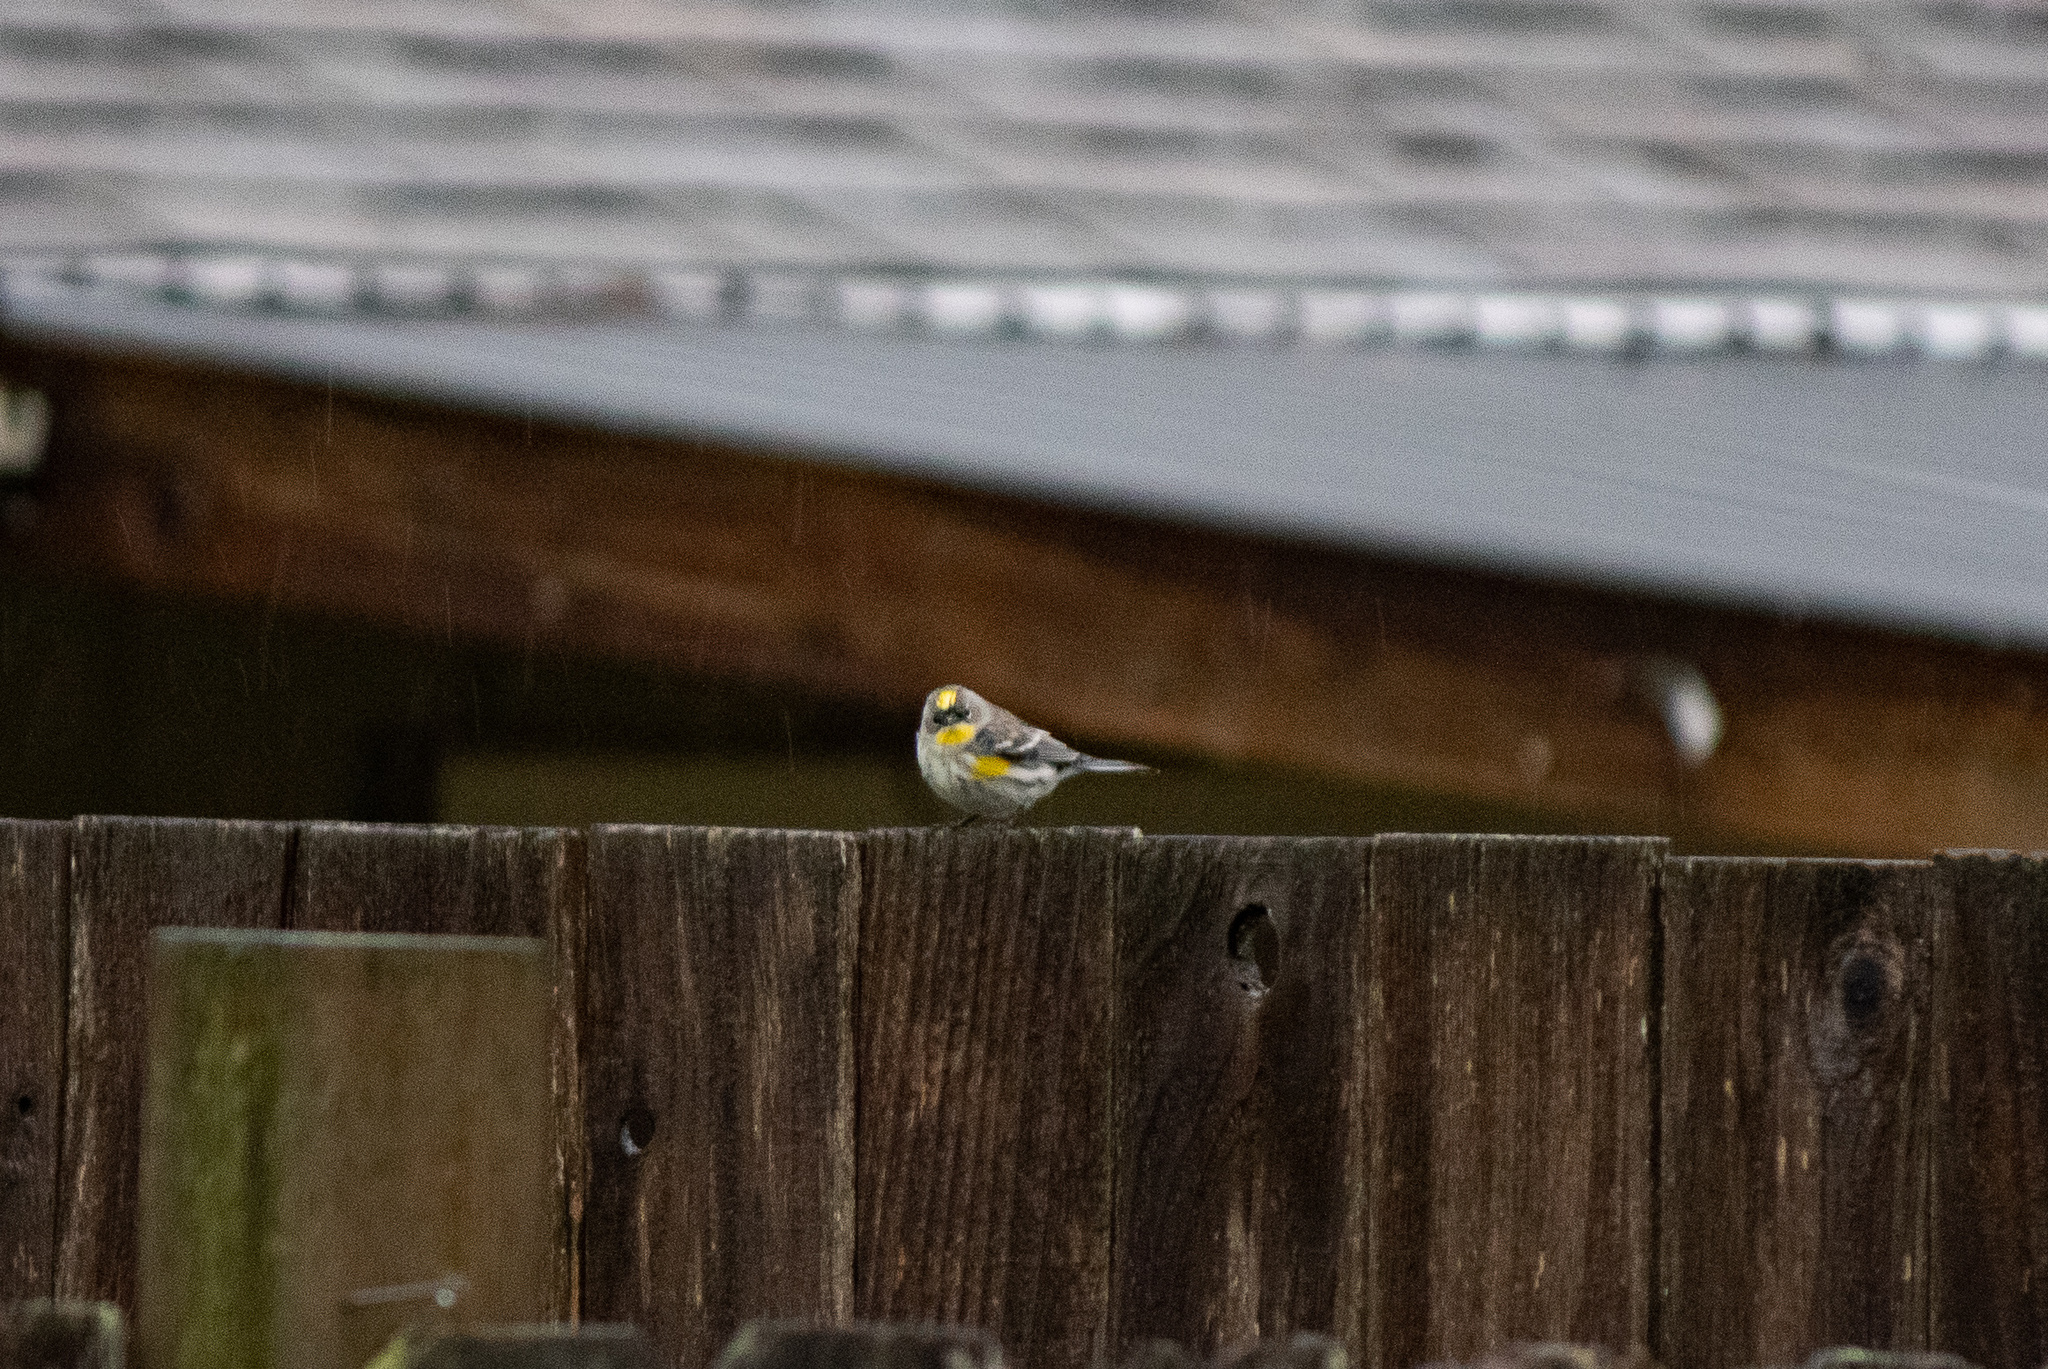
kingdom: Animalia
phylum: Chordata
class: Aves
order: Passeriformes
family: Parulidae
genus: Setophaga
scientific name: Setophaga coronata
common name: Myrtle warbler
